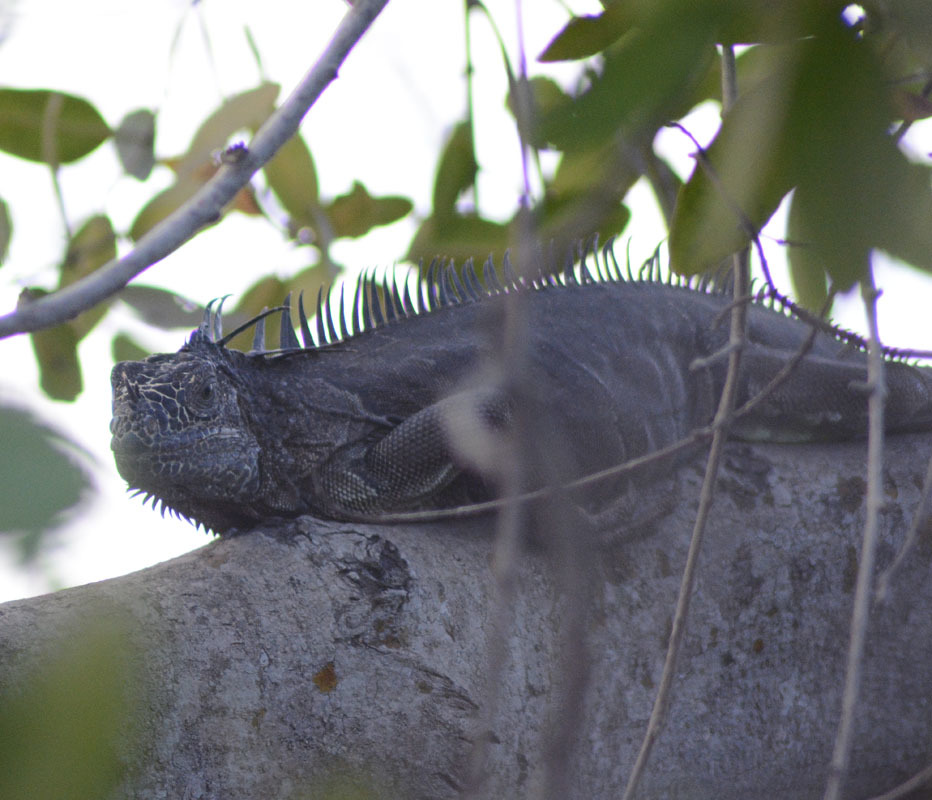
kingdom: Animalia
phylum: Chordata
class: Squamata
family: Iguanidae
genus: Iguana
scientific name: Iguana iguana
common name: Green iguana
